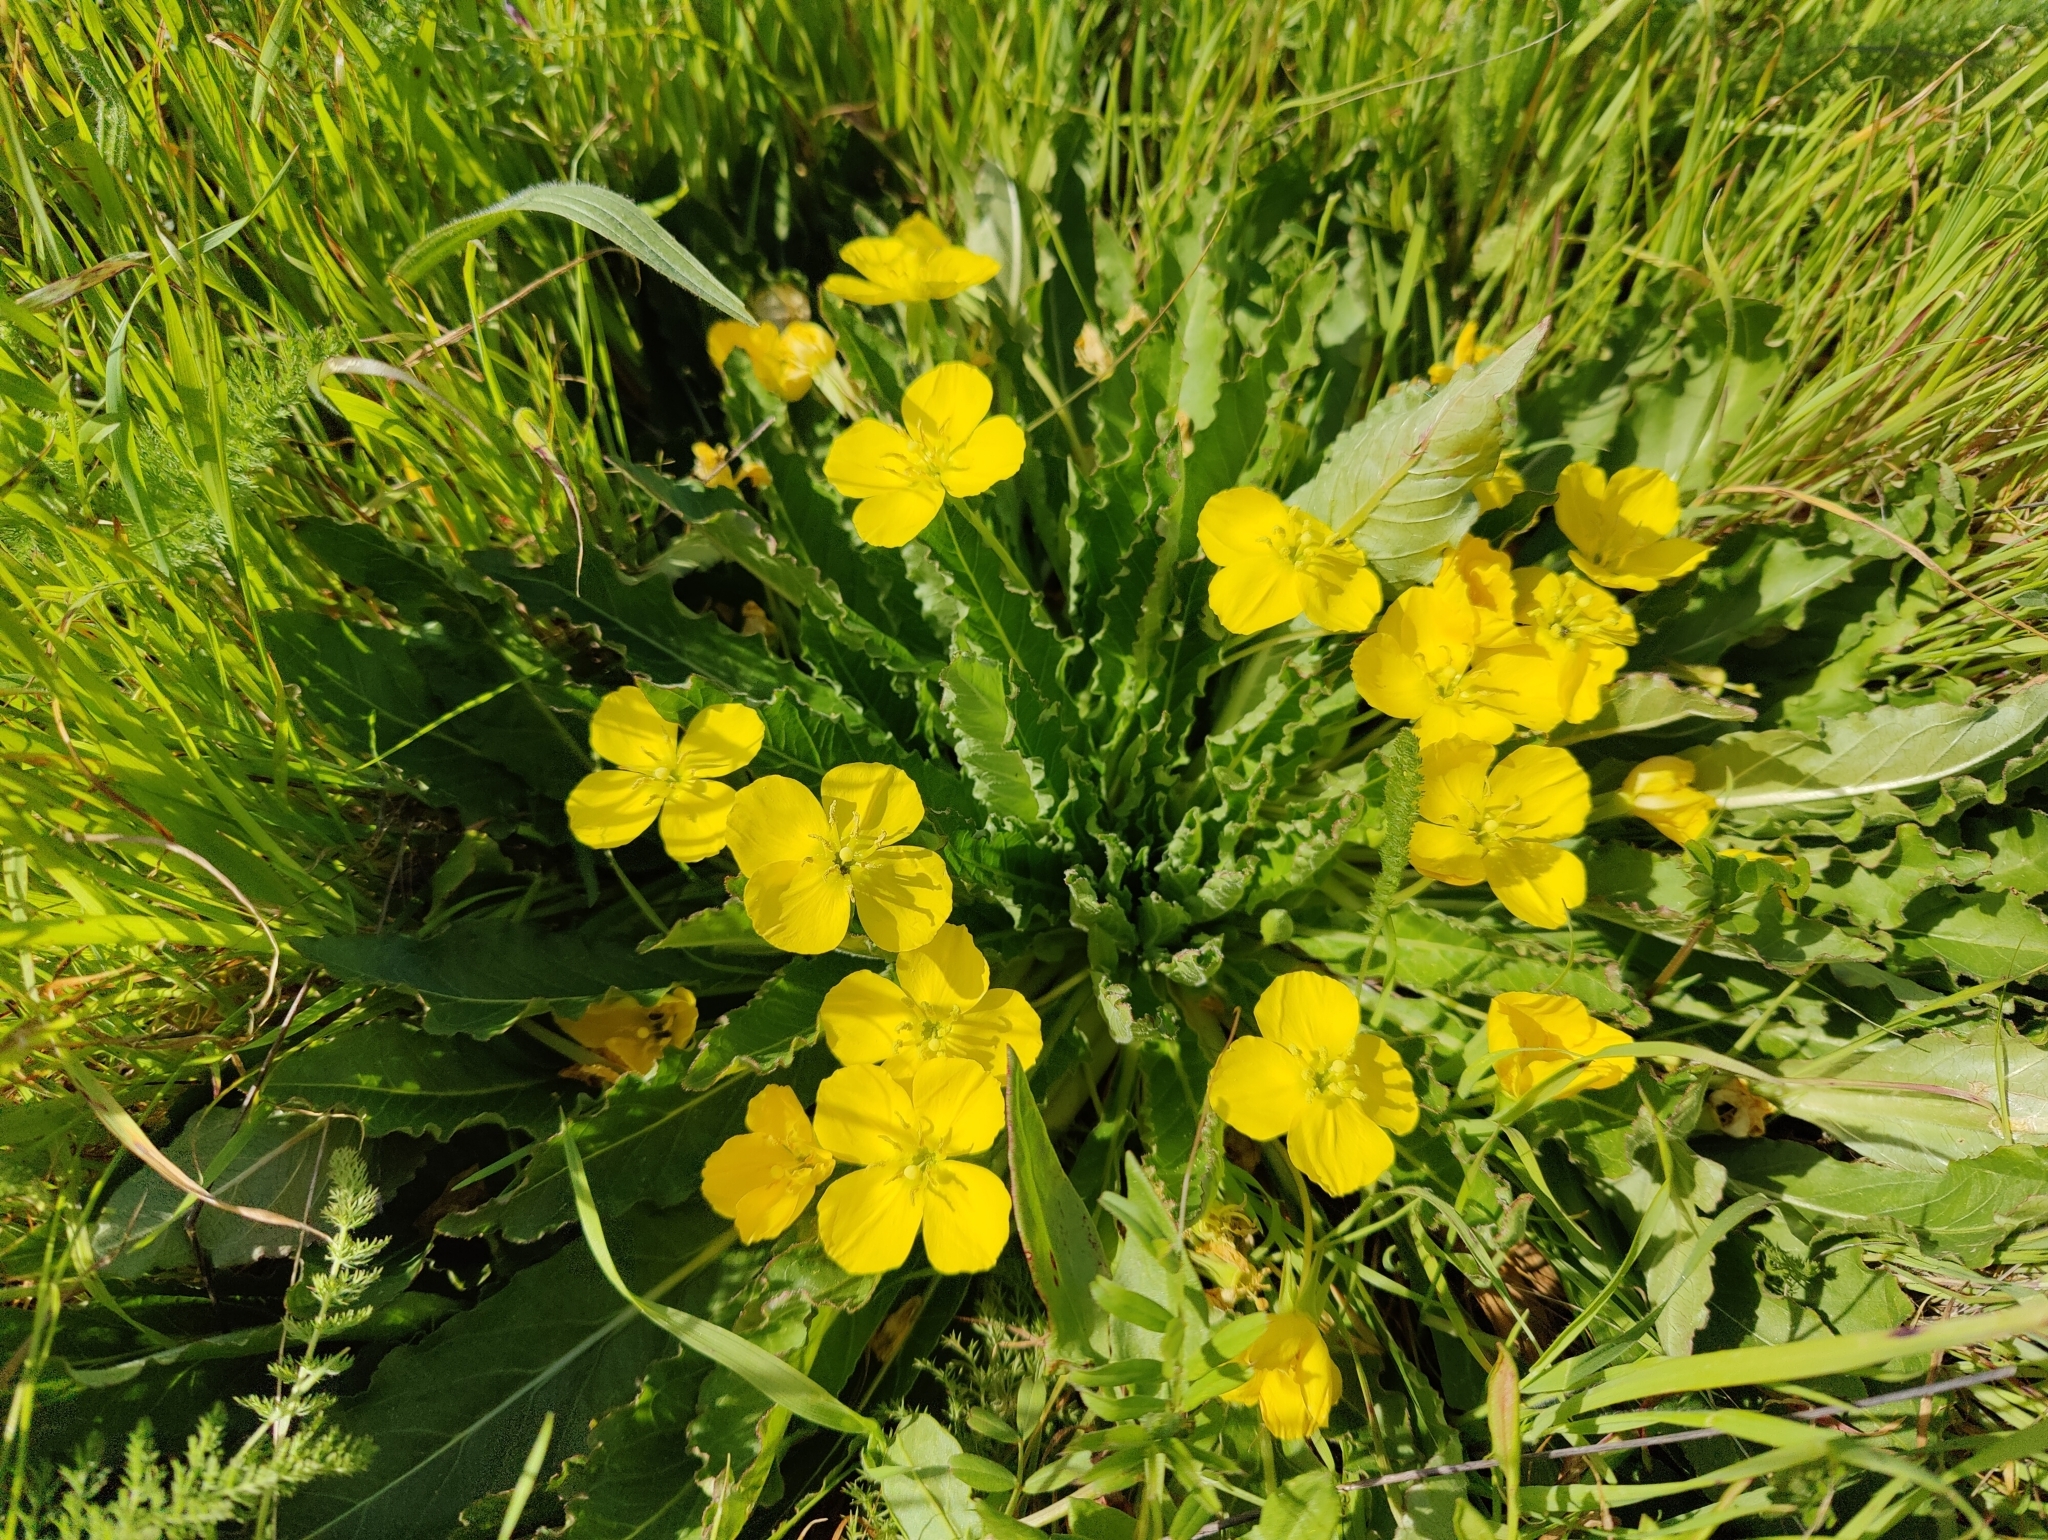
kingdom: Plantae
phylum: Tracheophyta
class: Magnoliopsida
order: Myrtales
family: Onagraceae
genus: Taraxia
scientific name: Taraxia ovata
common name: Goldeneggs
